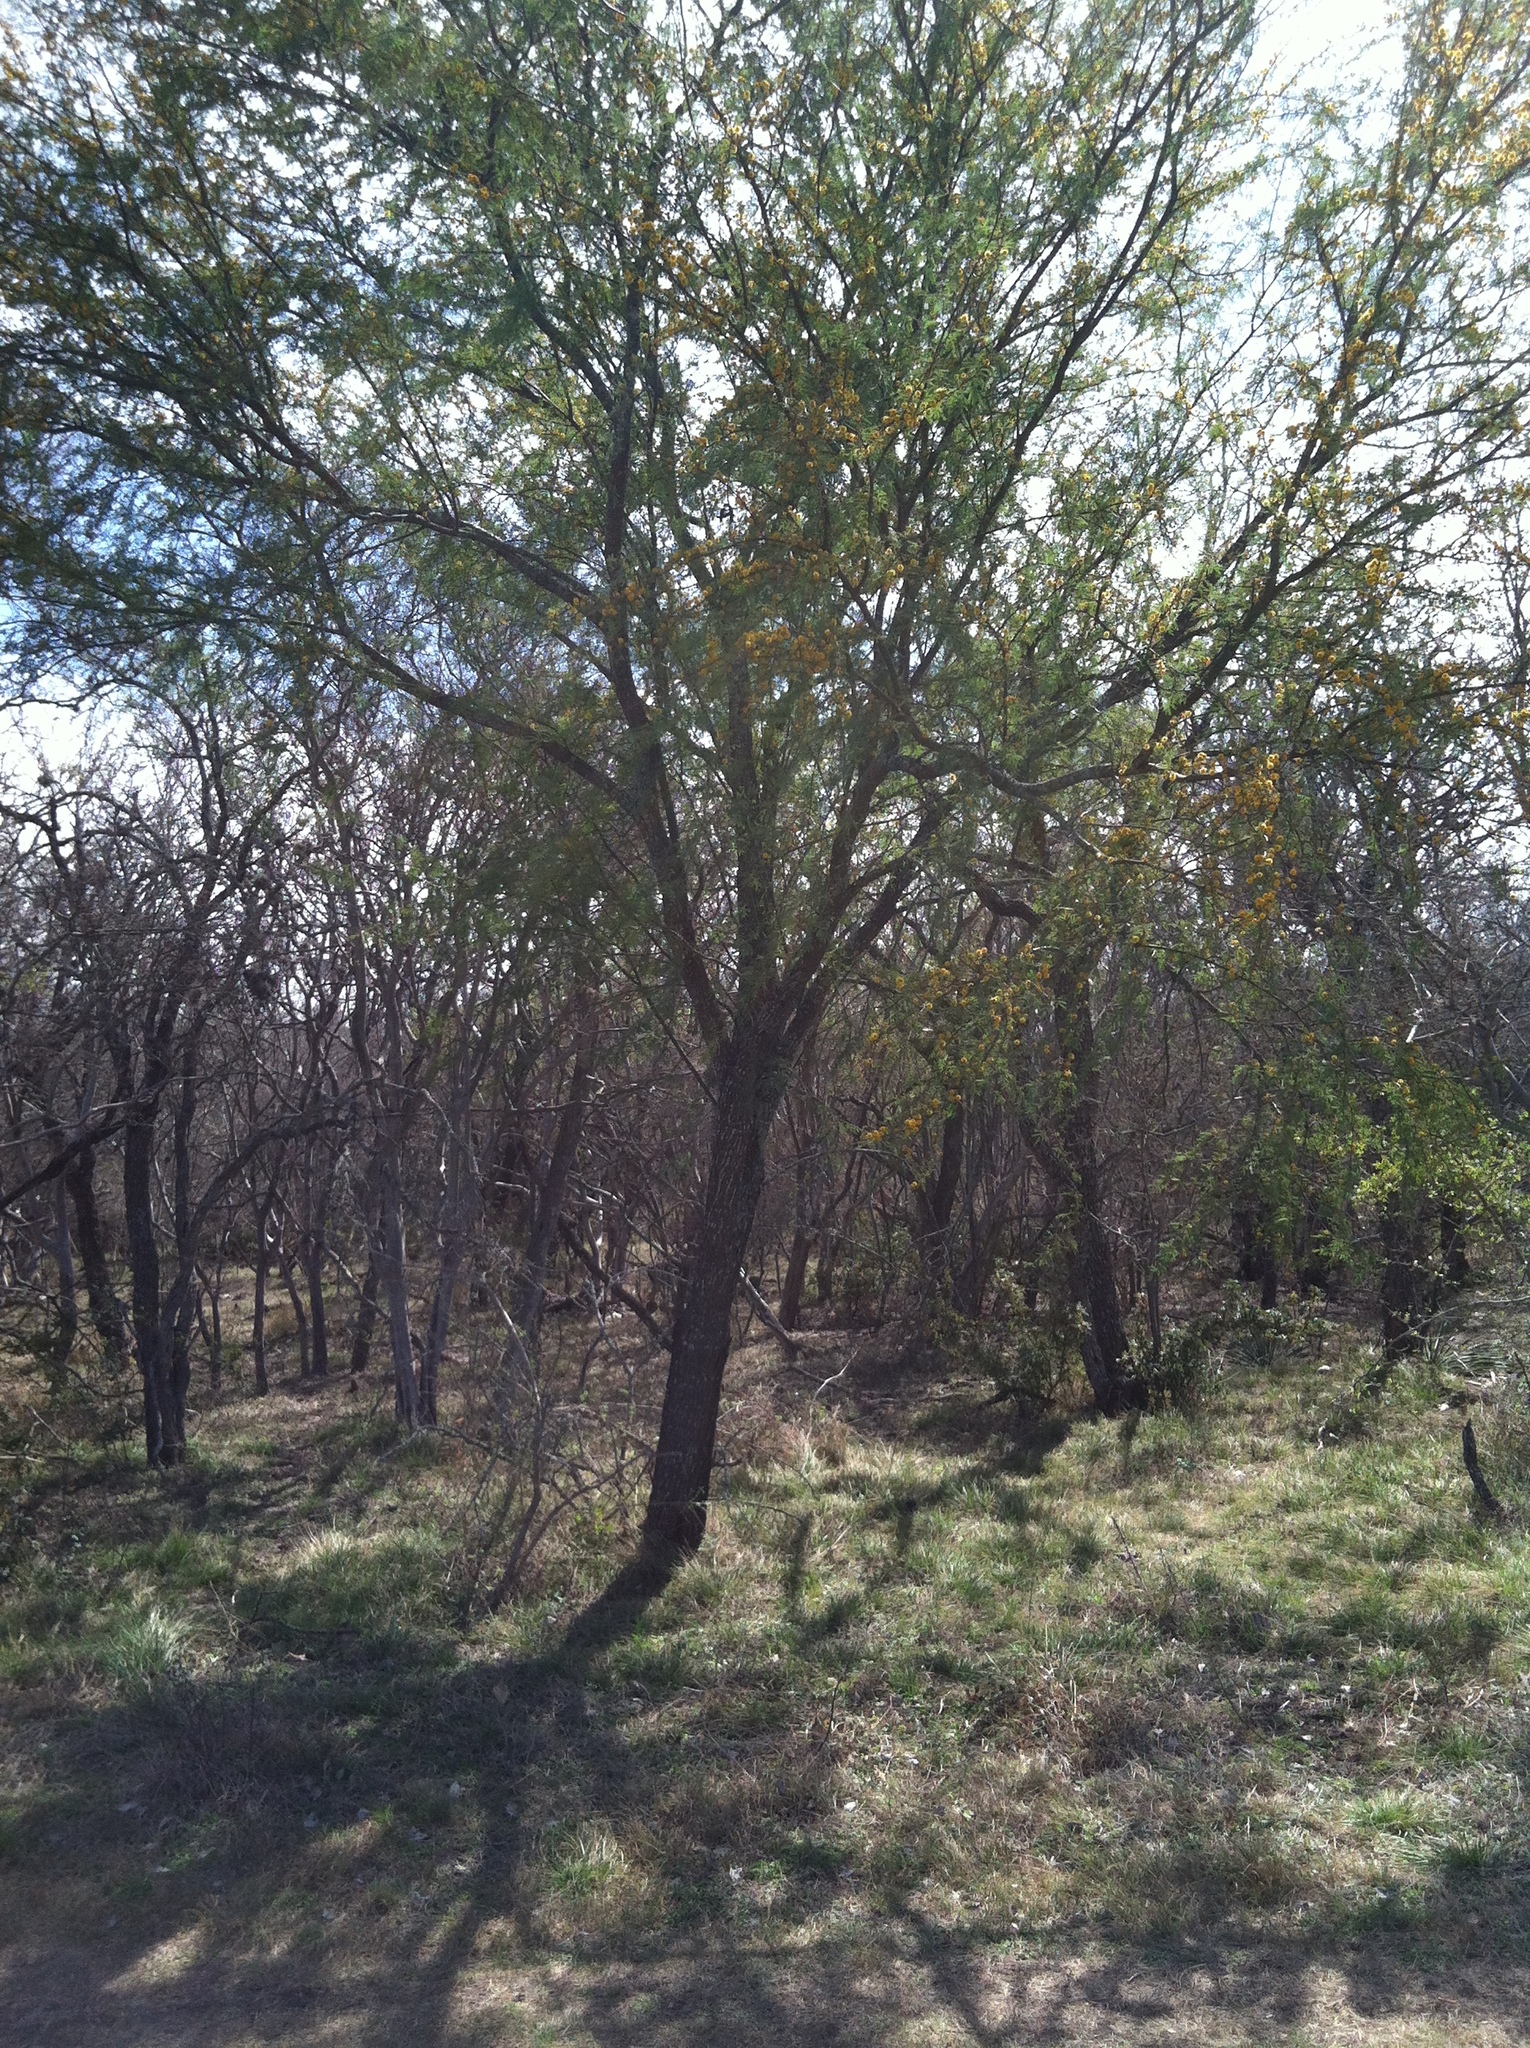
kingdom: Plantae
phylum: Tracheophyta
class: Magnoliopsida
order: Fabales
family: Fabaceae
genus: Vachellia
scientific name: Vachellia farnesiana
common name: Sweet acacia
